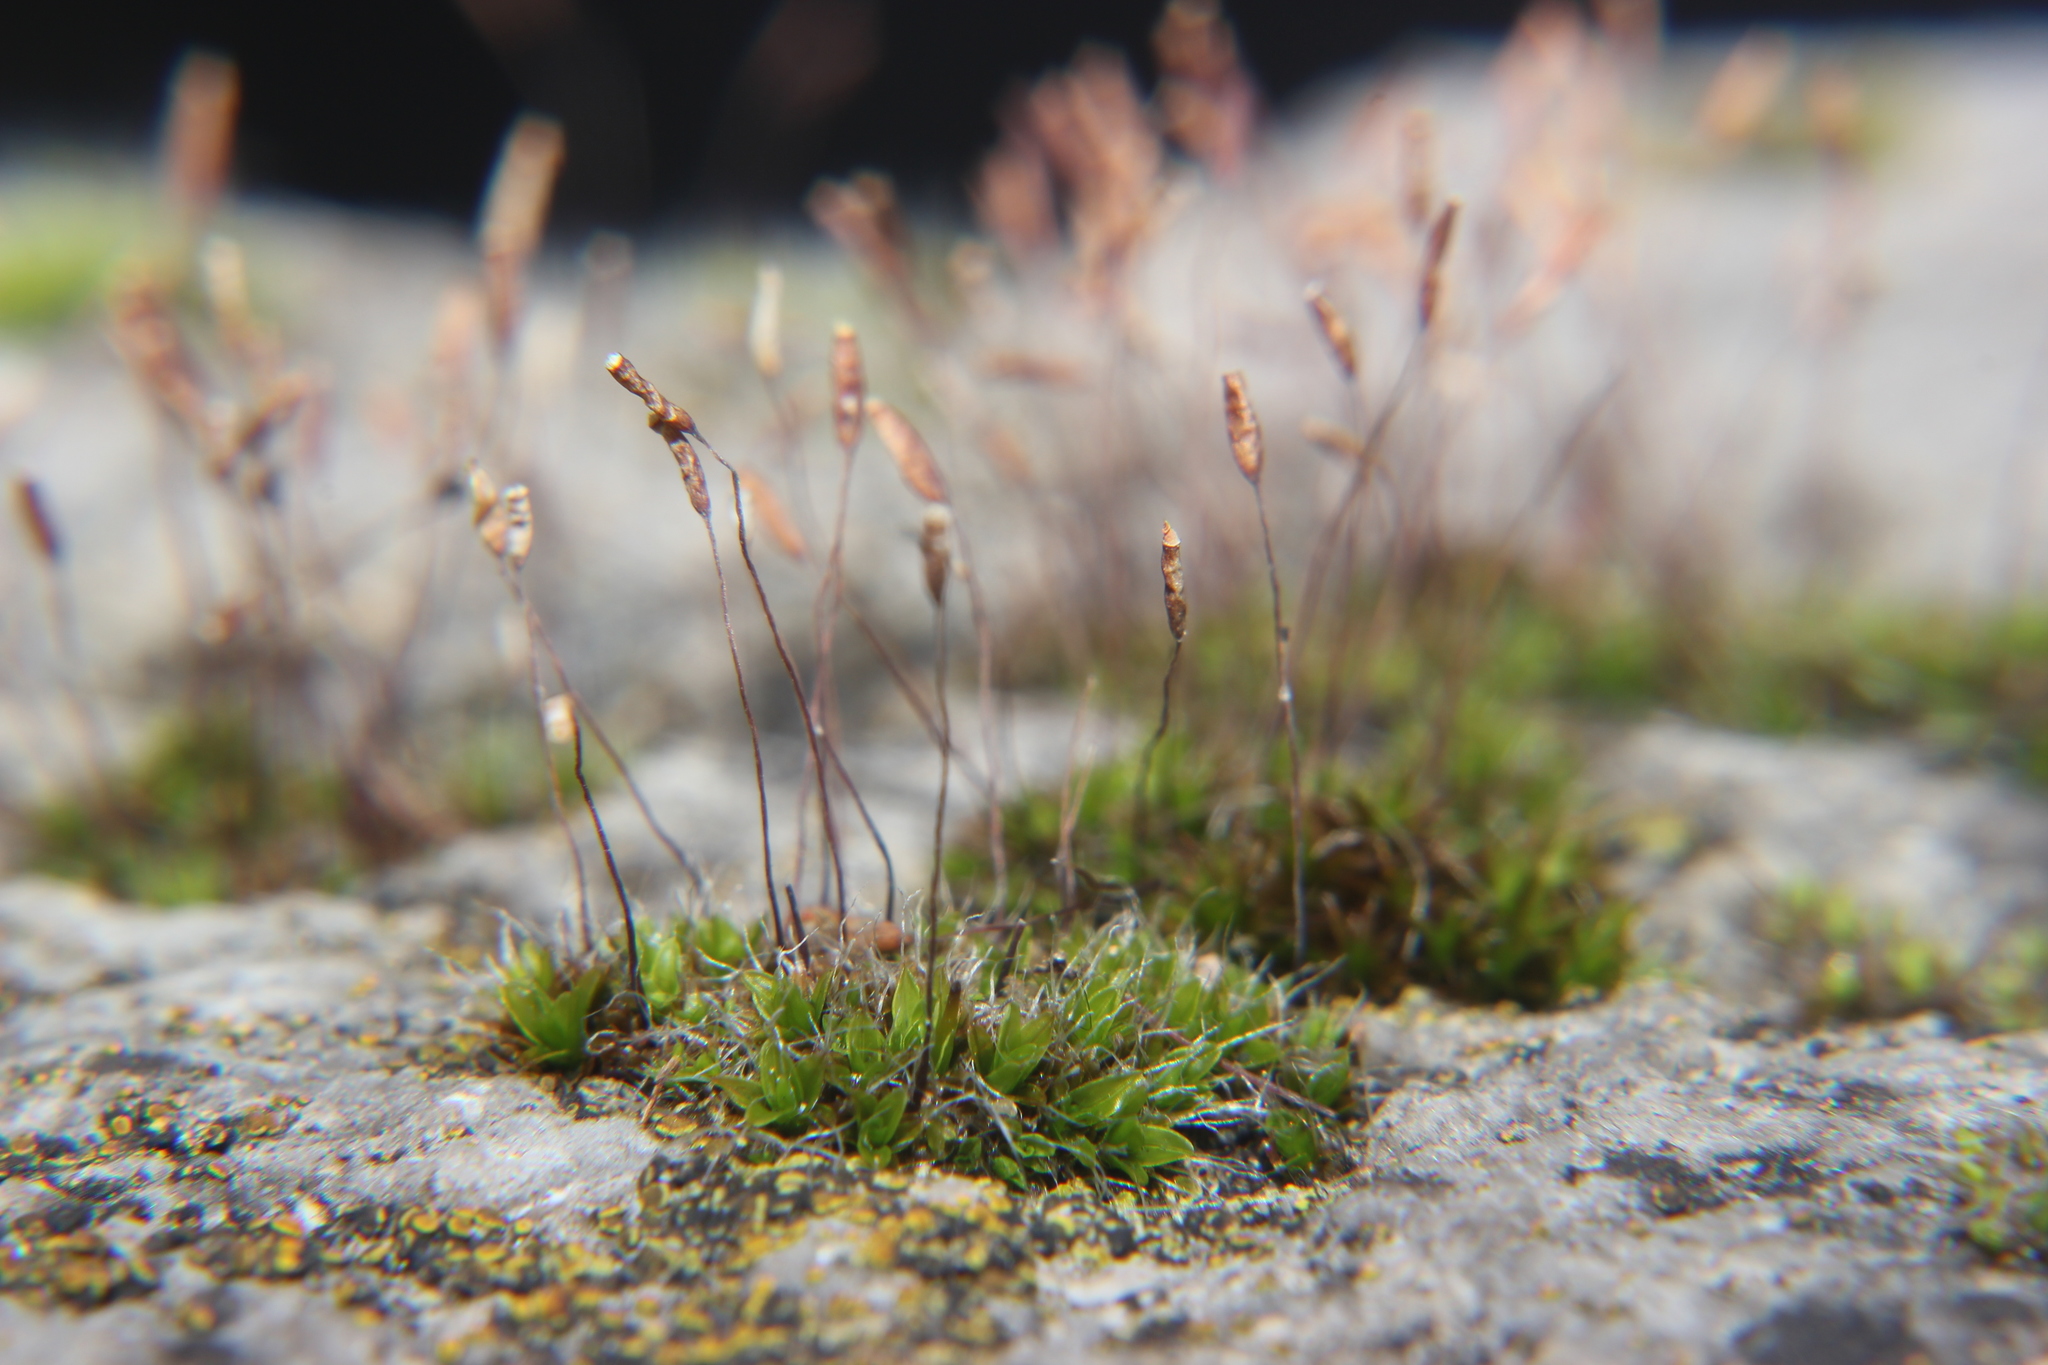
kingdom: Plantae
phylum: Bryophyta
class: Bryopsida
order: Pottiales
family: Pottiaceae
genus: Tortula
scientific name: Tortula muralis
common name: Wall screw-moss
